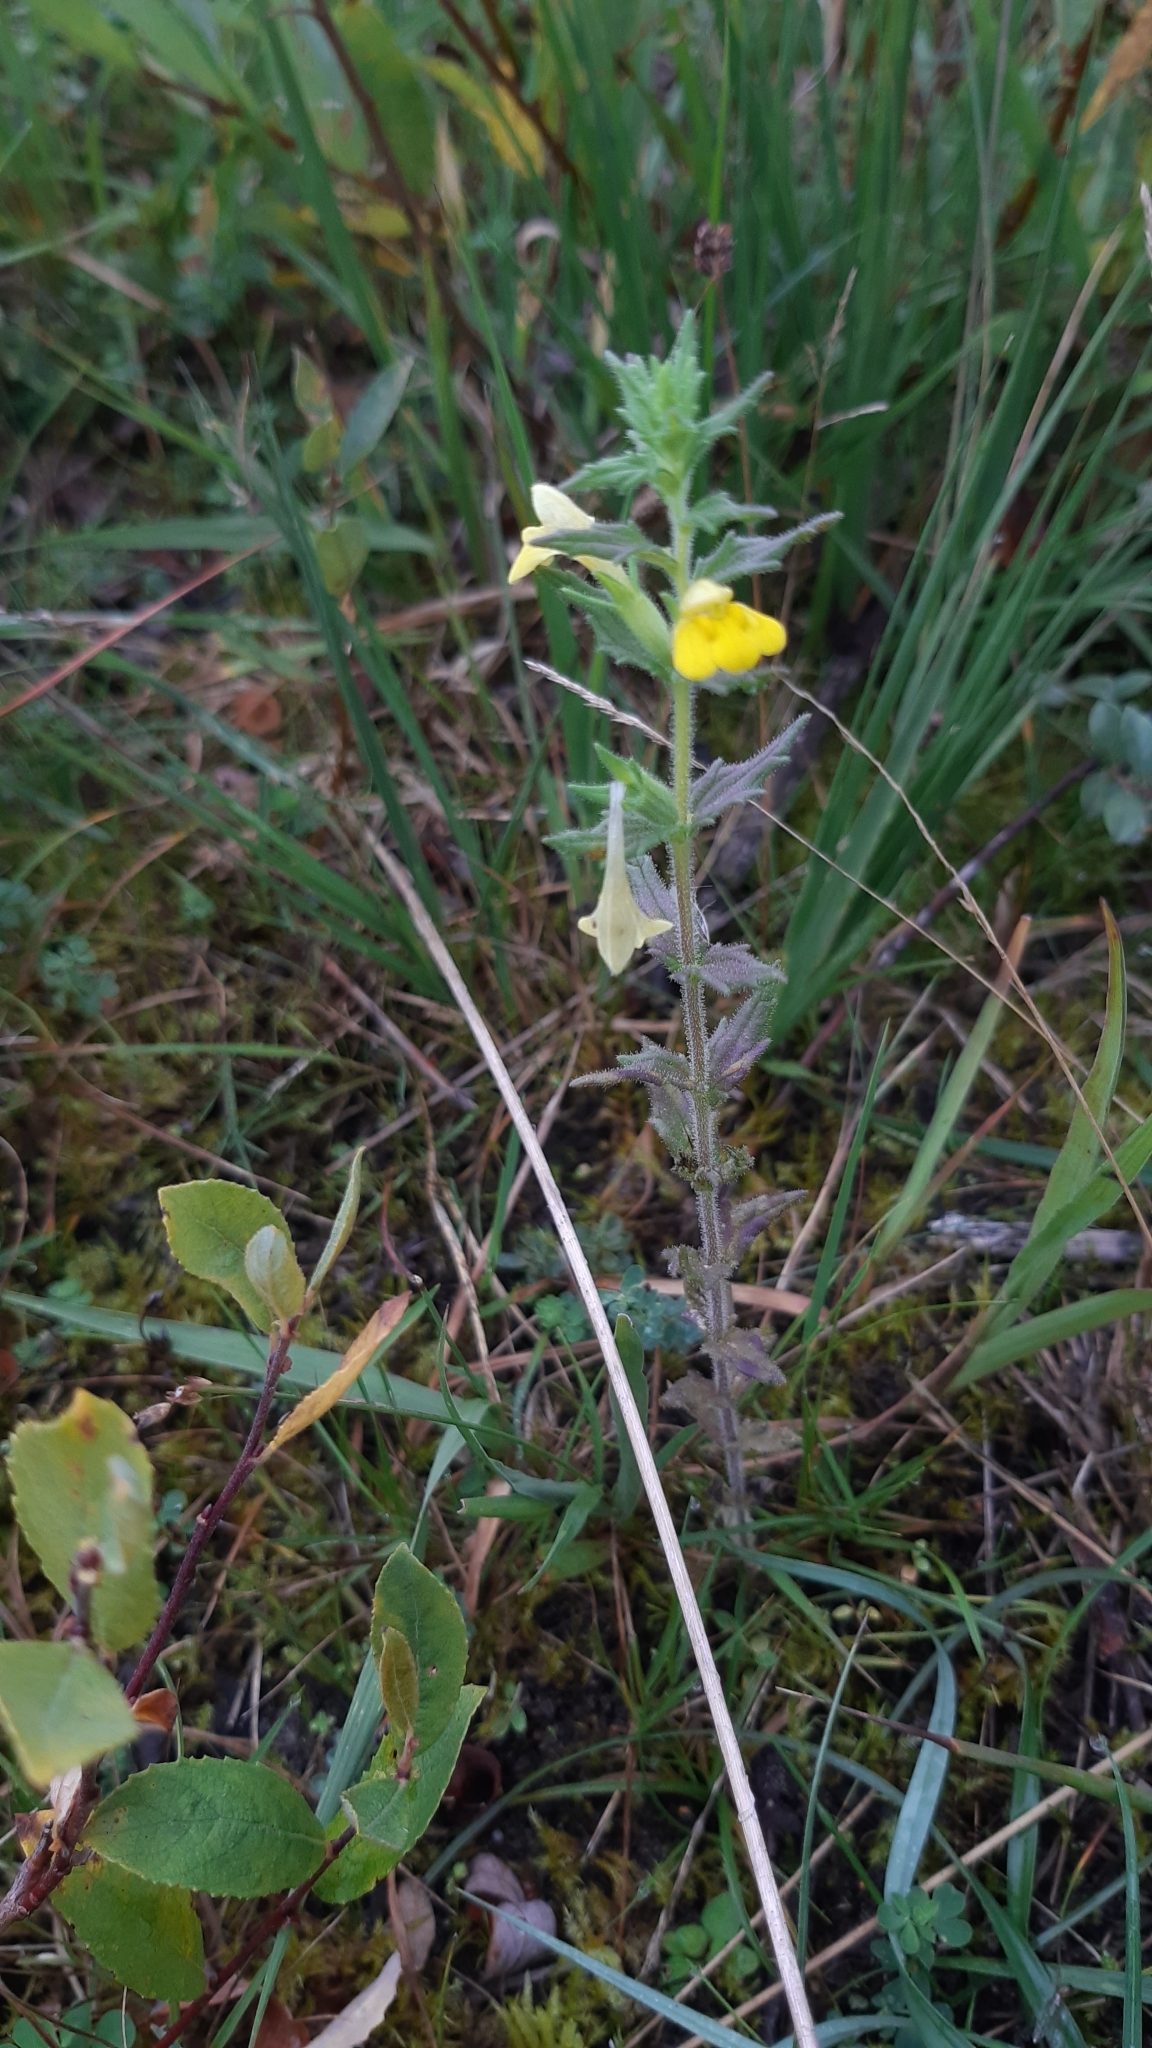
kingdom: Plantae
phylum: Tracheophyta
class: Magnoliopsida
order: Lamiales
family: Orobanchaceae
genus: Bellardia
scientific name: Bellardia viscosa
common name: Sticky parentucellia
